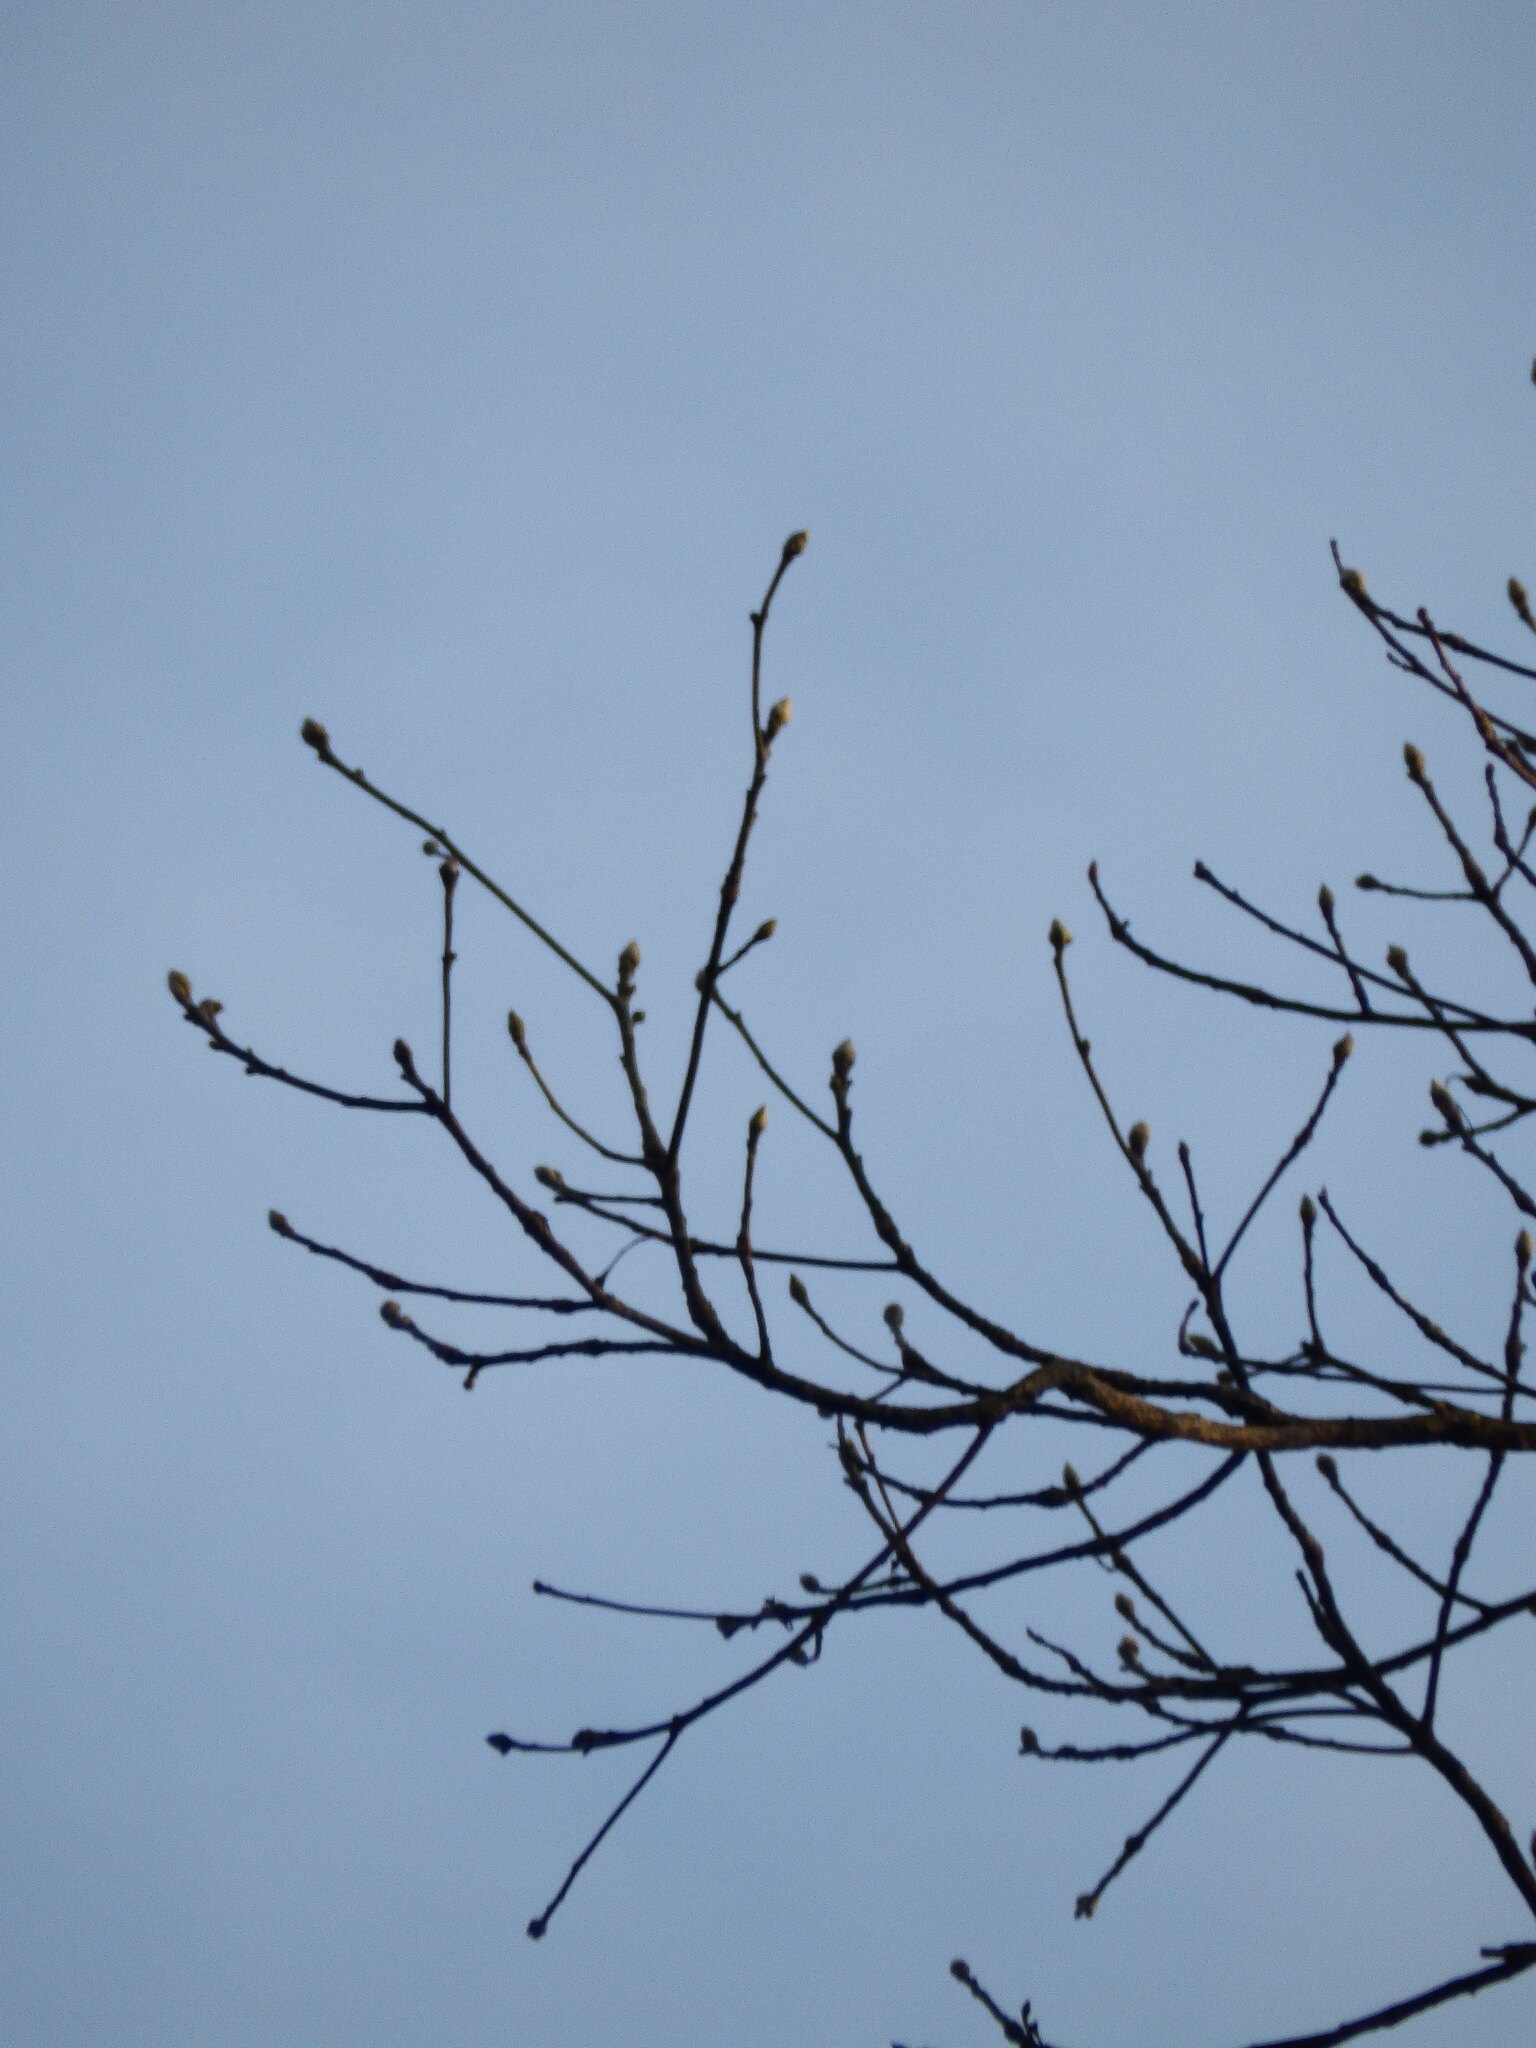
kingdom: Plantae
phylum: Tracheophyta
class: Magnoliopsida
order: Laurales
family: Lauraceae
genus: Sassafras
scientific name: Sassafras albidum
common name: Sassafras
